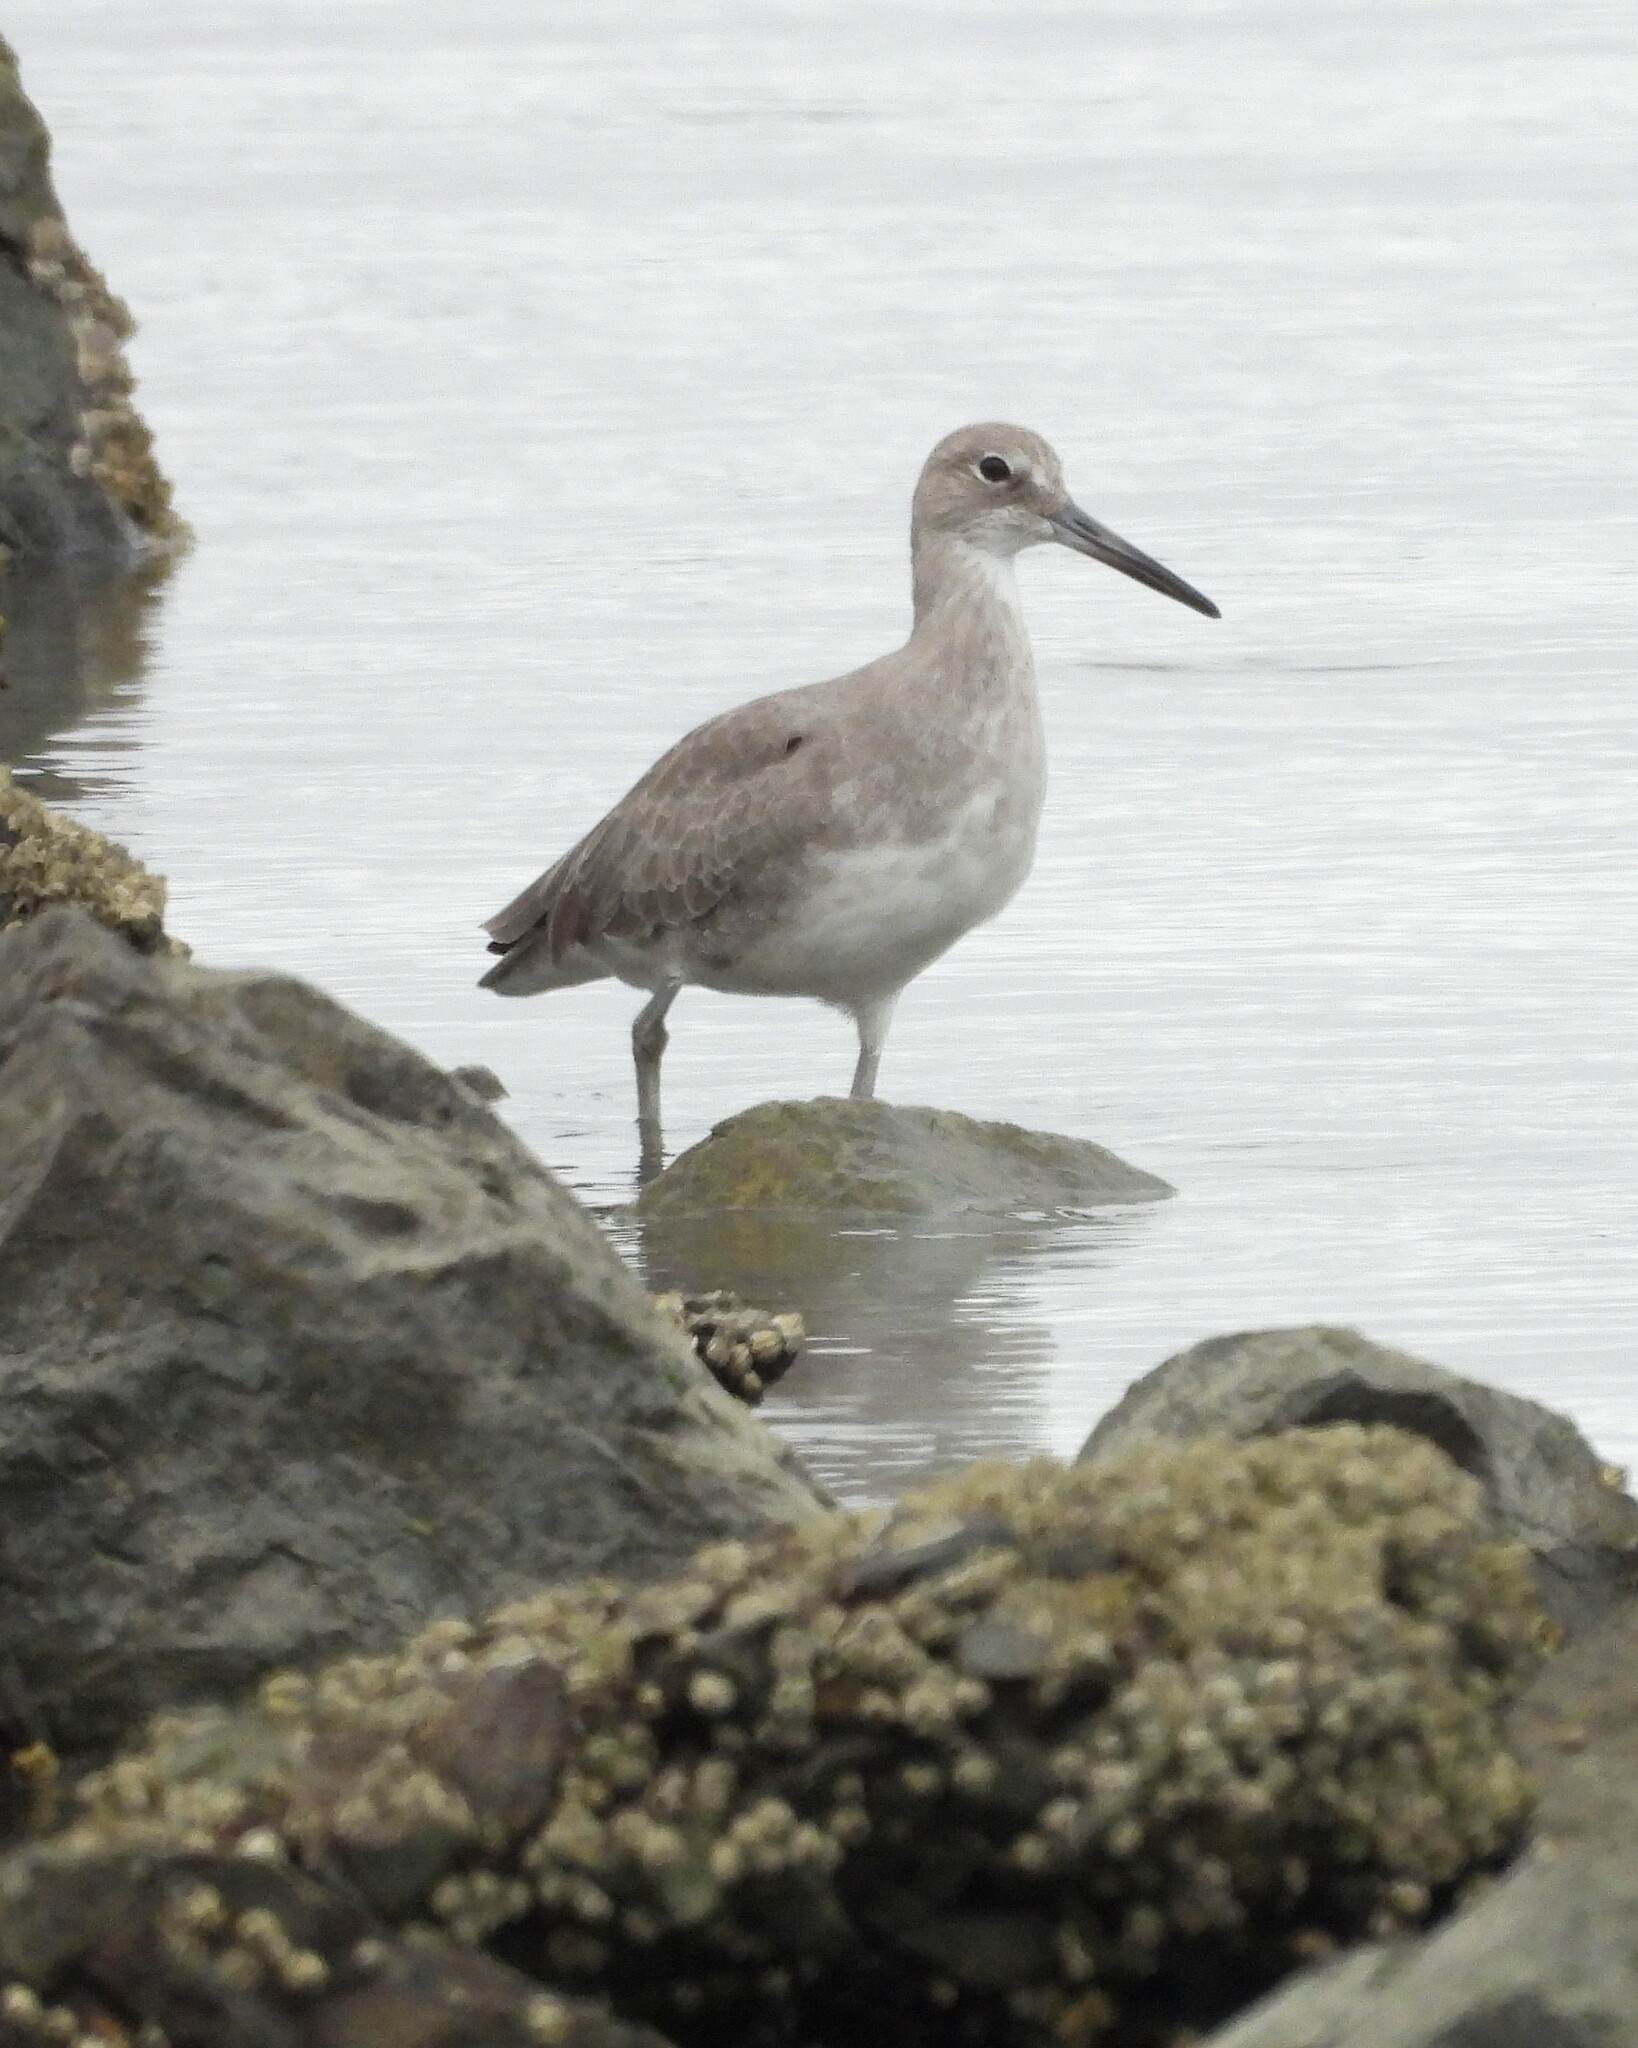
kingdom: Animalia
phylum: Chordata
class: Aves
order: Charadriiformes
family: Scolopacidae
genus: Tringa
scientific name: Tringa semipalmata
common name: Willet
